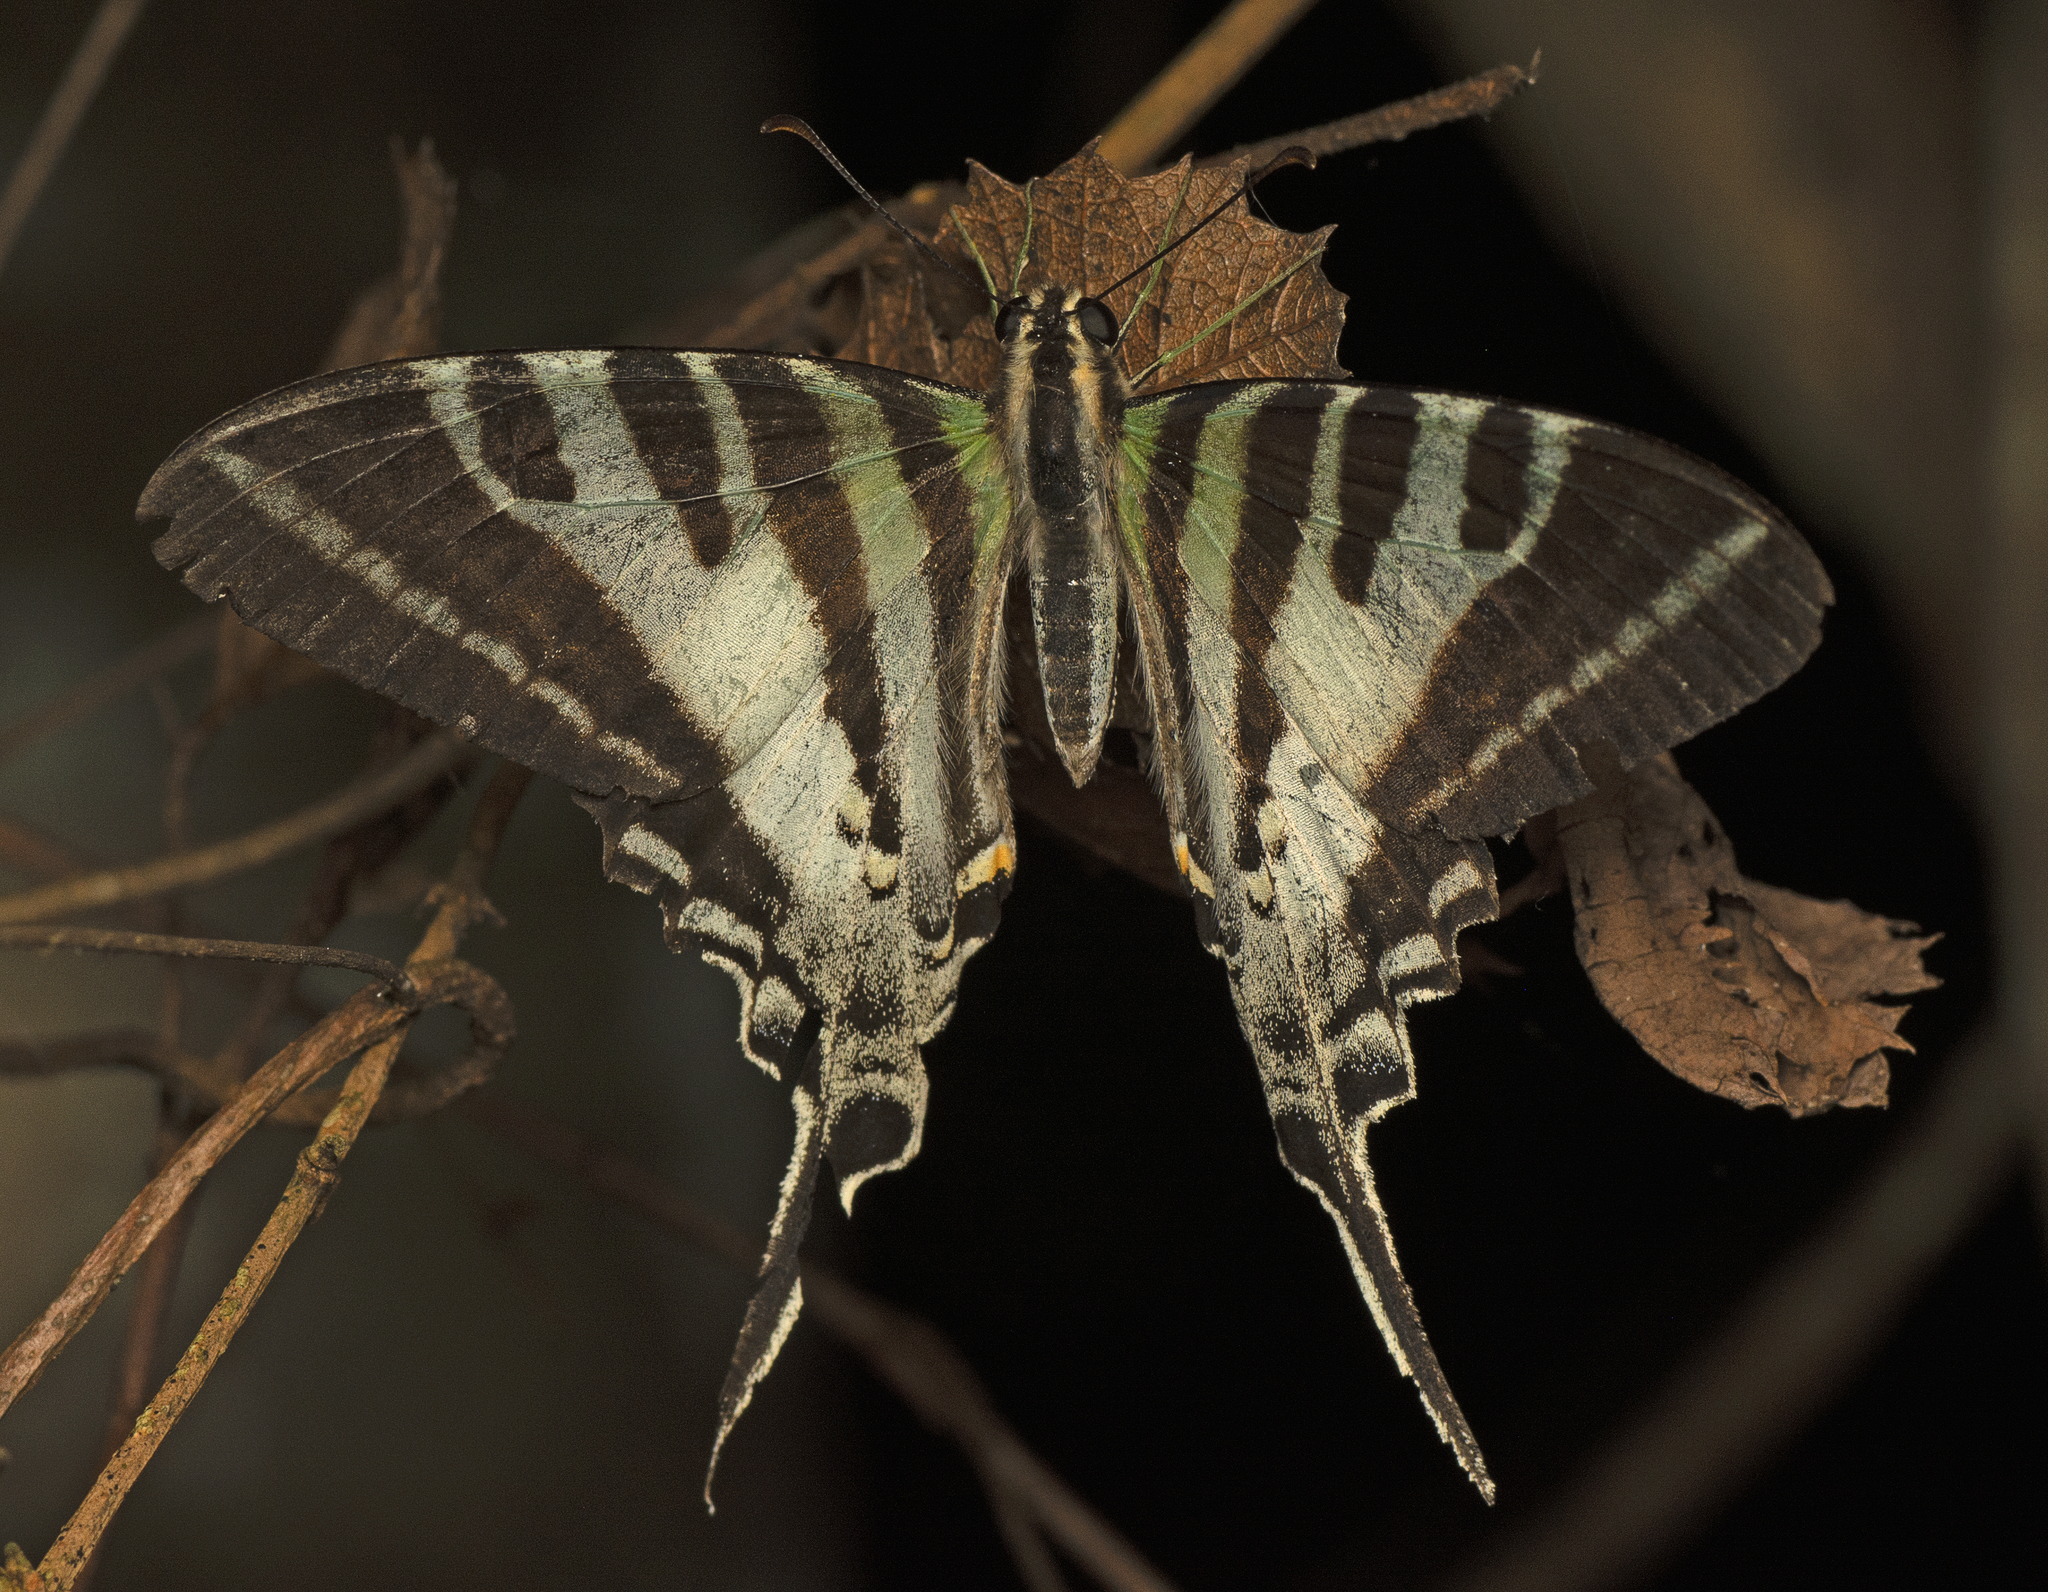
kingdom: Animalia
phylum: Arthropoda
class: Insecta
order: Lepidoptera
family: Papilionidae
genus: Protographium
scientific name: Protographium leosthenes
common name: Four-bar swordtail
